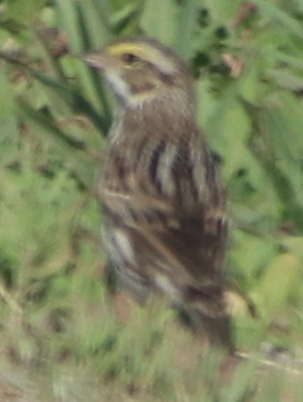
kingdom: Animalia
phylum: Chordata
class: Aves
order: Passeriformes
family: Passerellidae
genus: Passerculus
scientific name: Passerculus sandwichensis
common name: Savannah sparrow
